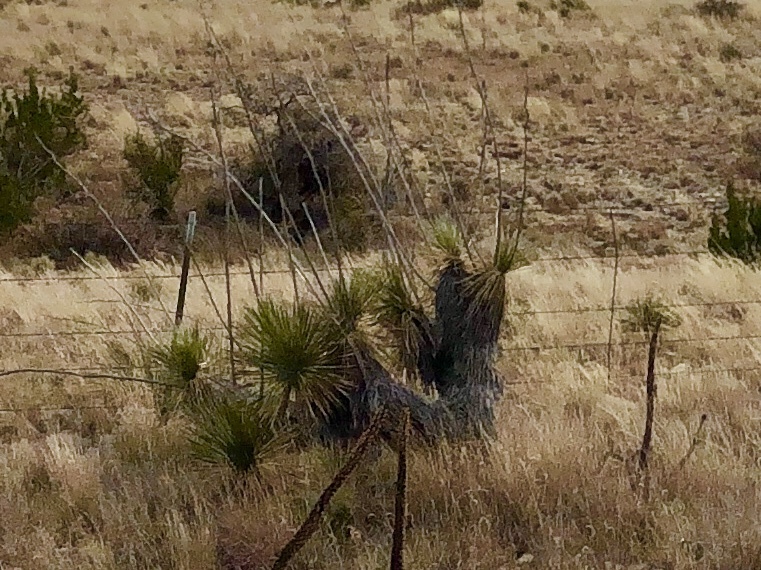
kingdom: Plantae
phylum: Tracheophyta
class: Liliopsida
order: Asparagales
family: Asparagaceae
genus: Yucca
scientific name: Yucca elata
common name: Palmella
